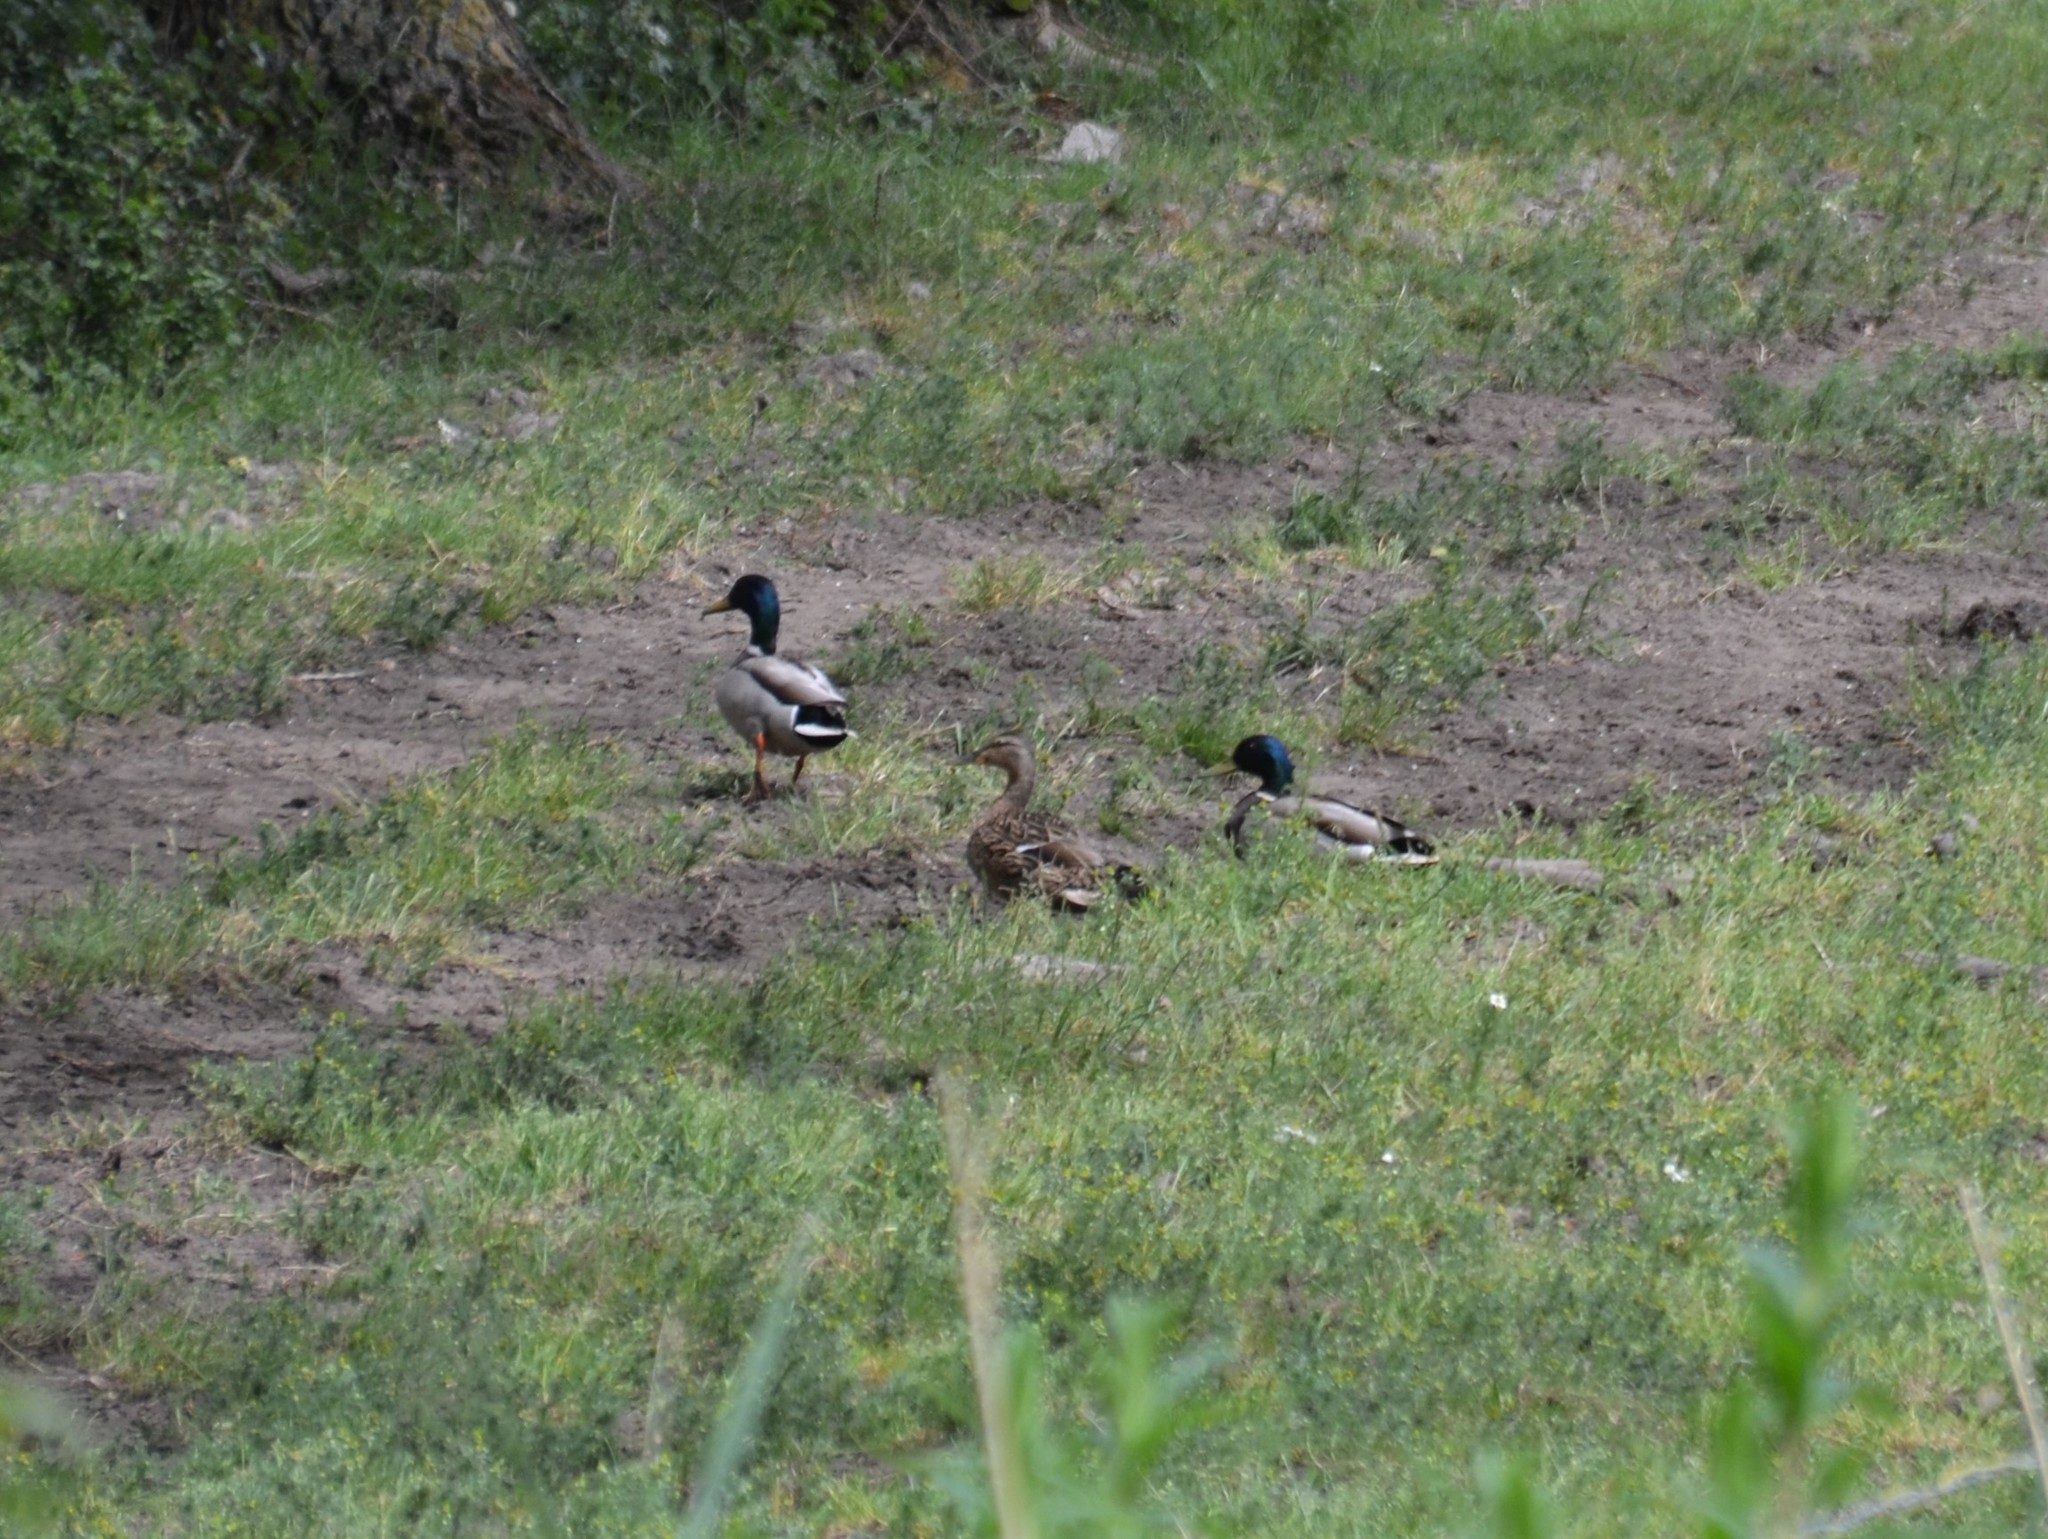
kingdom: Animalia
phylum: Chordata
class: Aves
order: Anseriformes
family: Anatidae
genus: Anas
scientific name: Anas platyrhynchos
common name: Mallard
